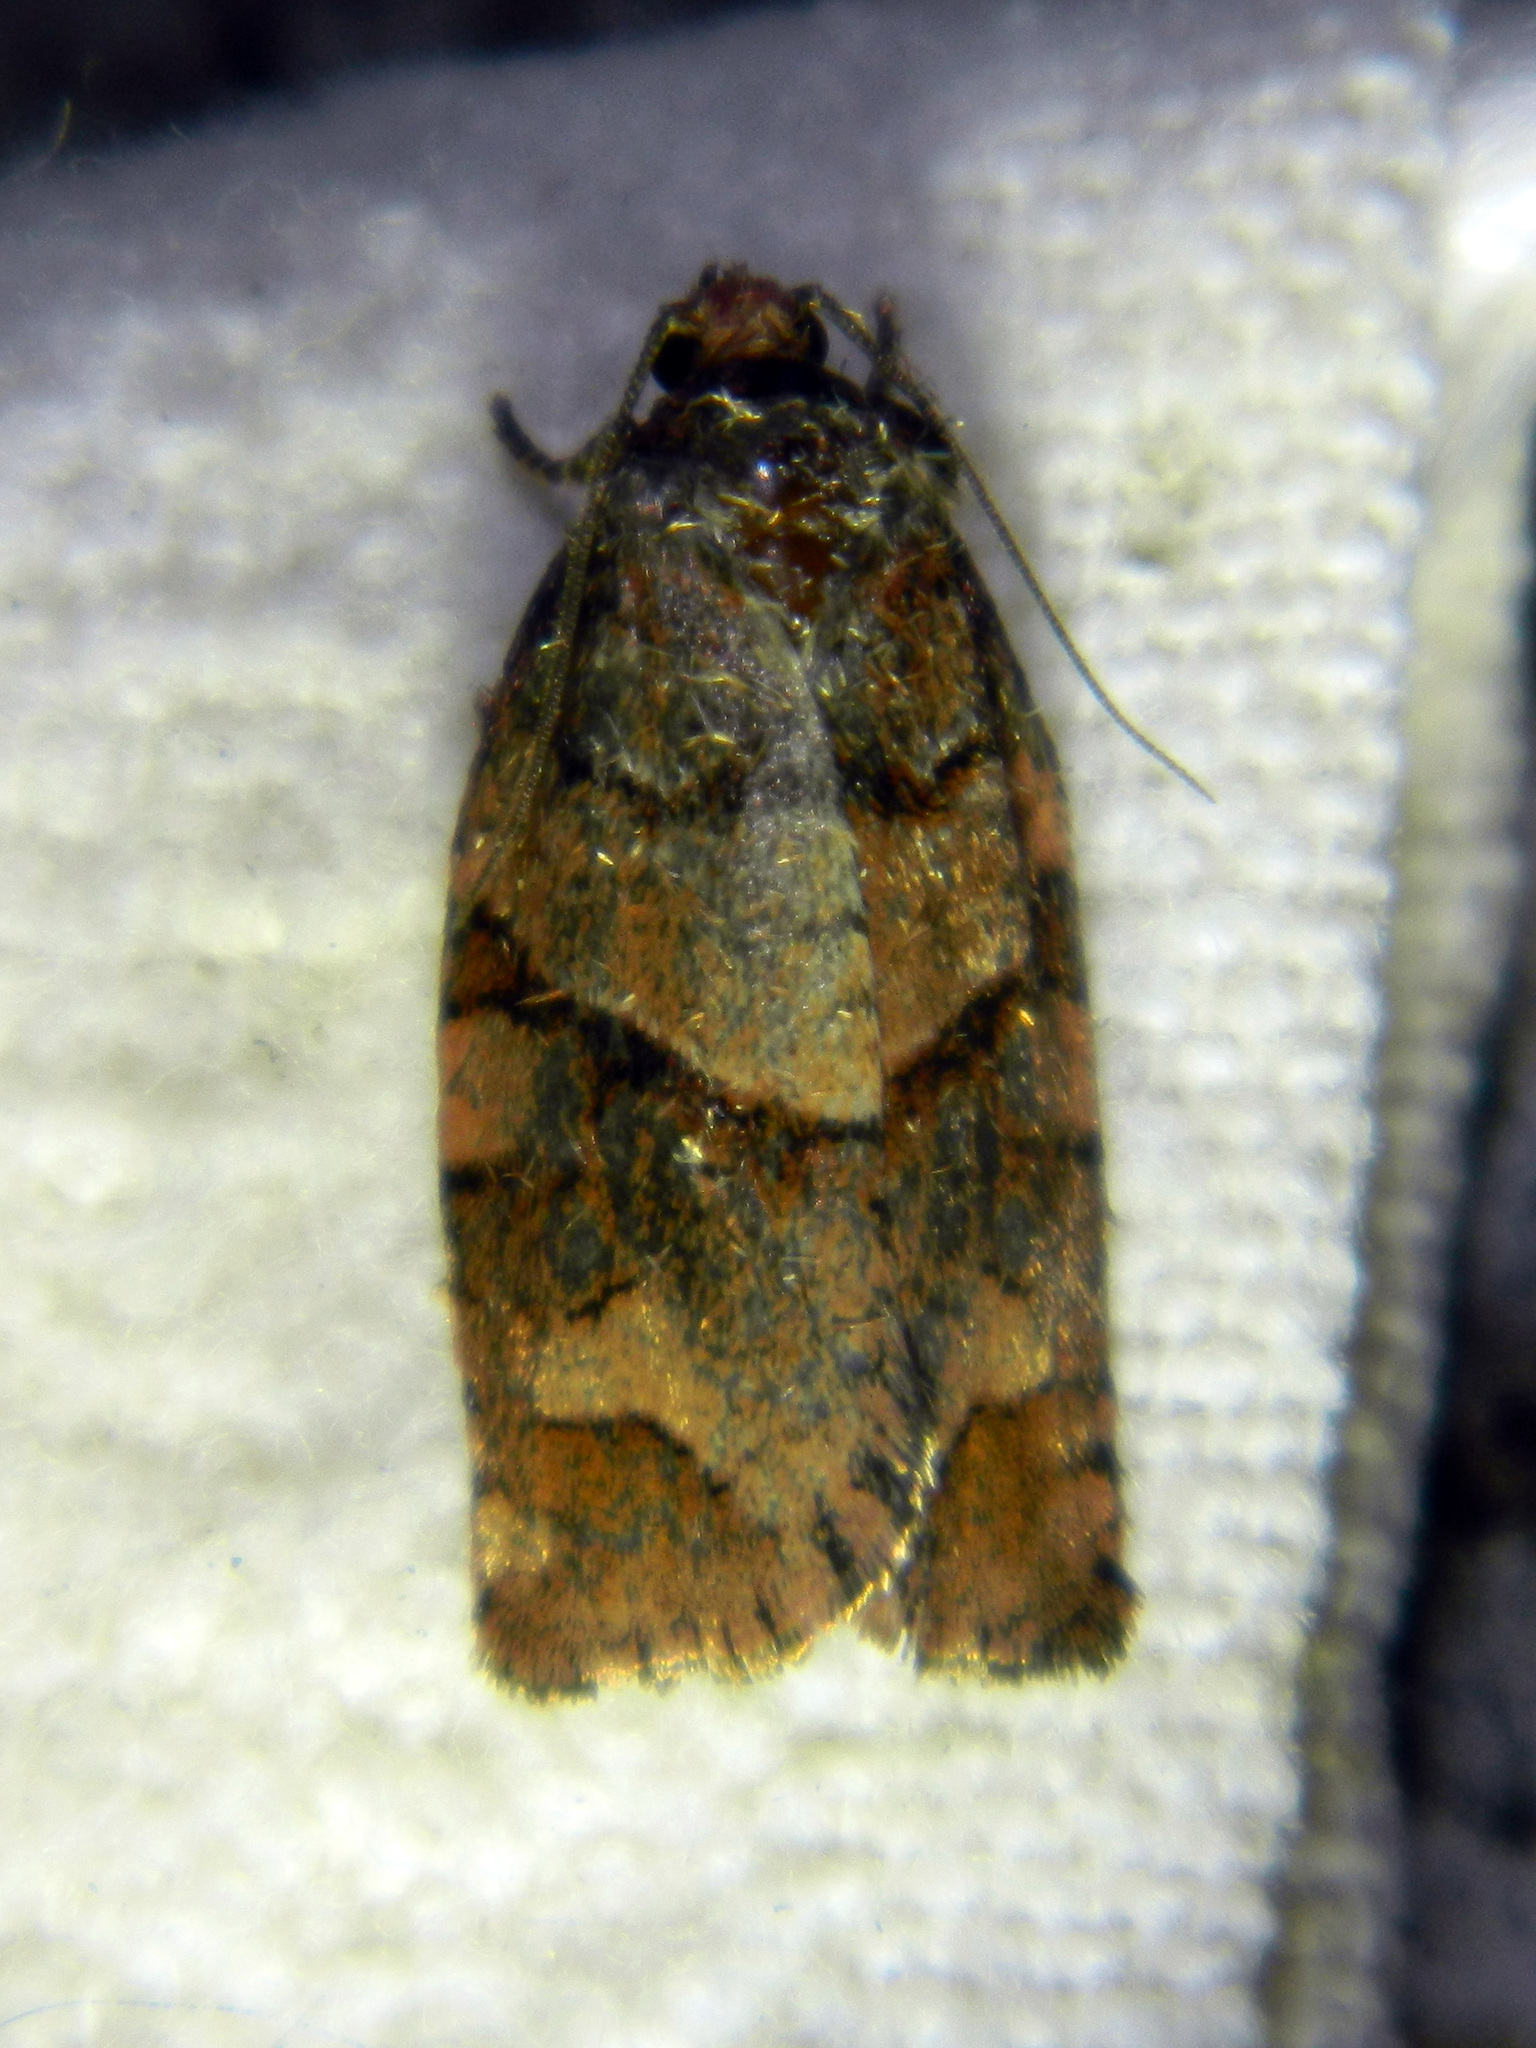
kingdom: Animalia
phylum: Arthropoda
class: Insecta
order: Lepidoptera
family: Tortricidae
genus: Archips
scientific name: Archips alberta
